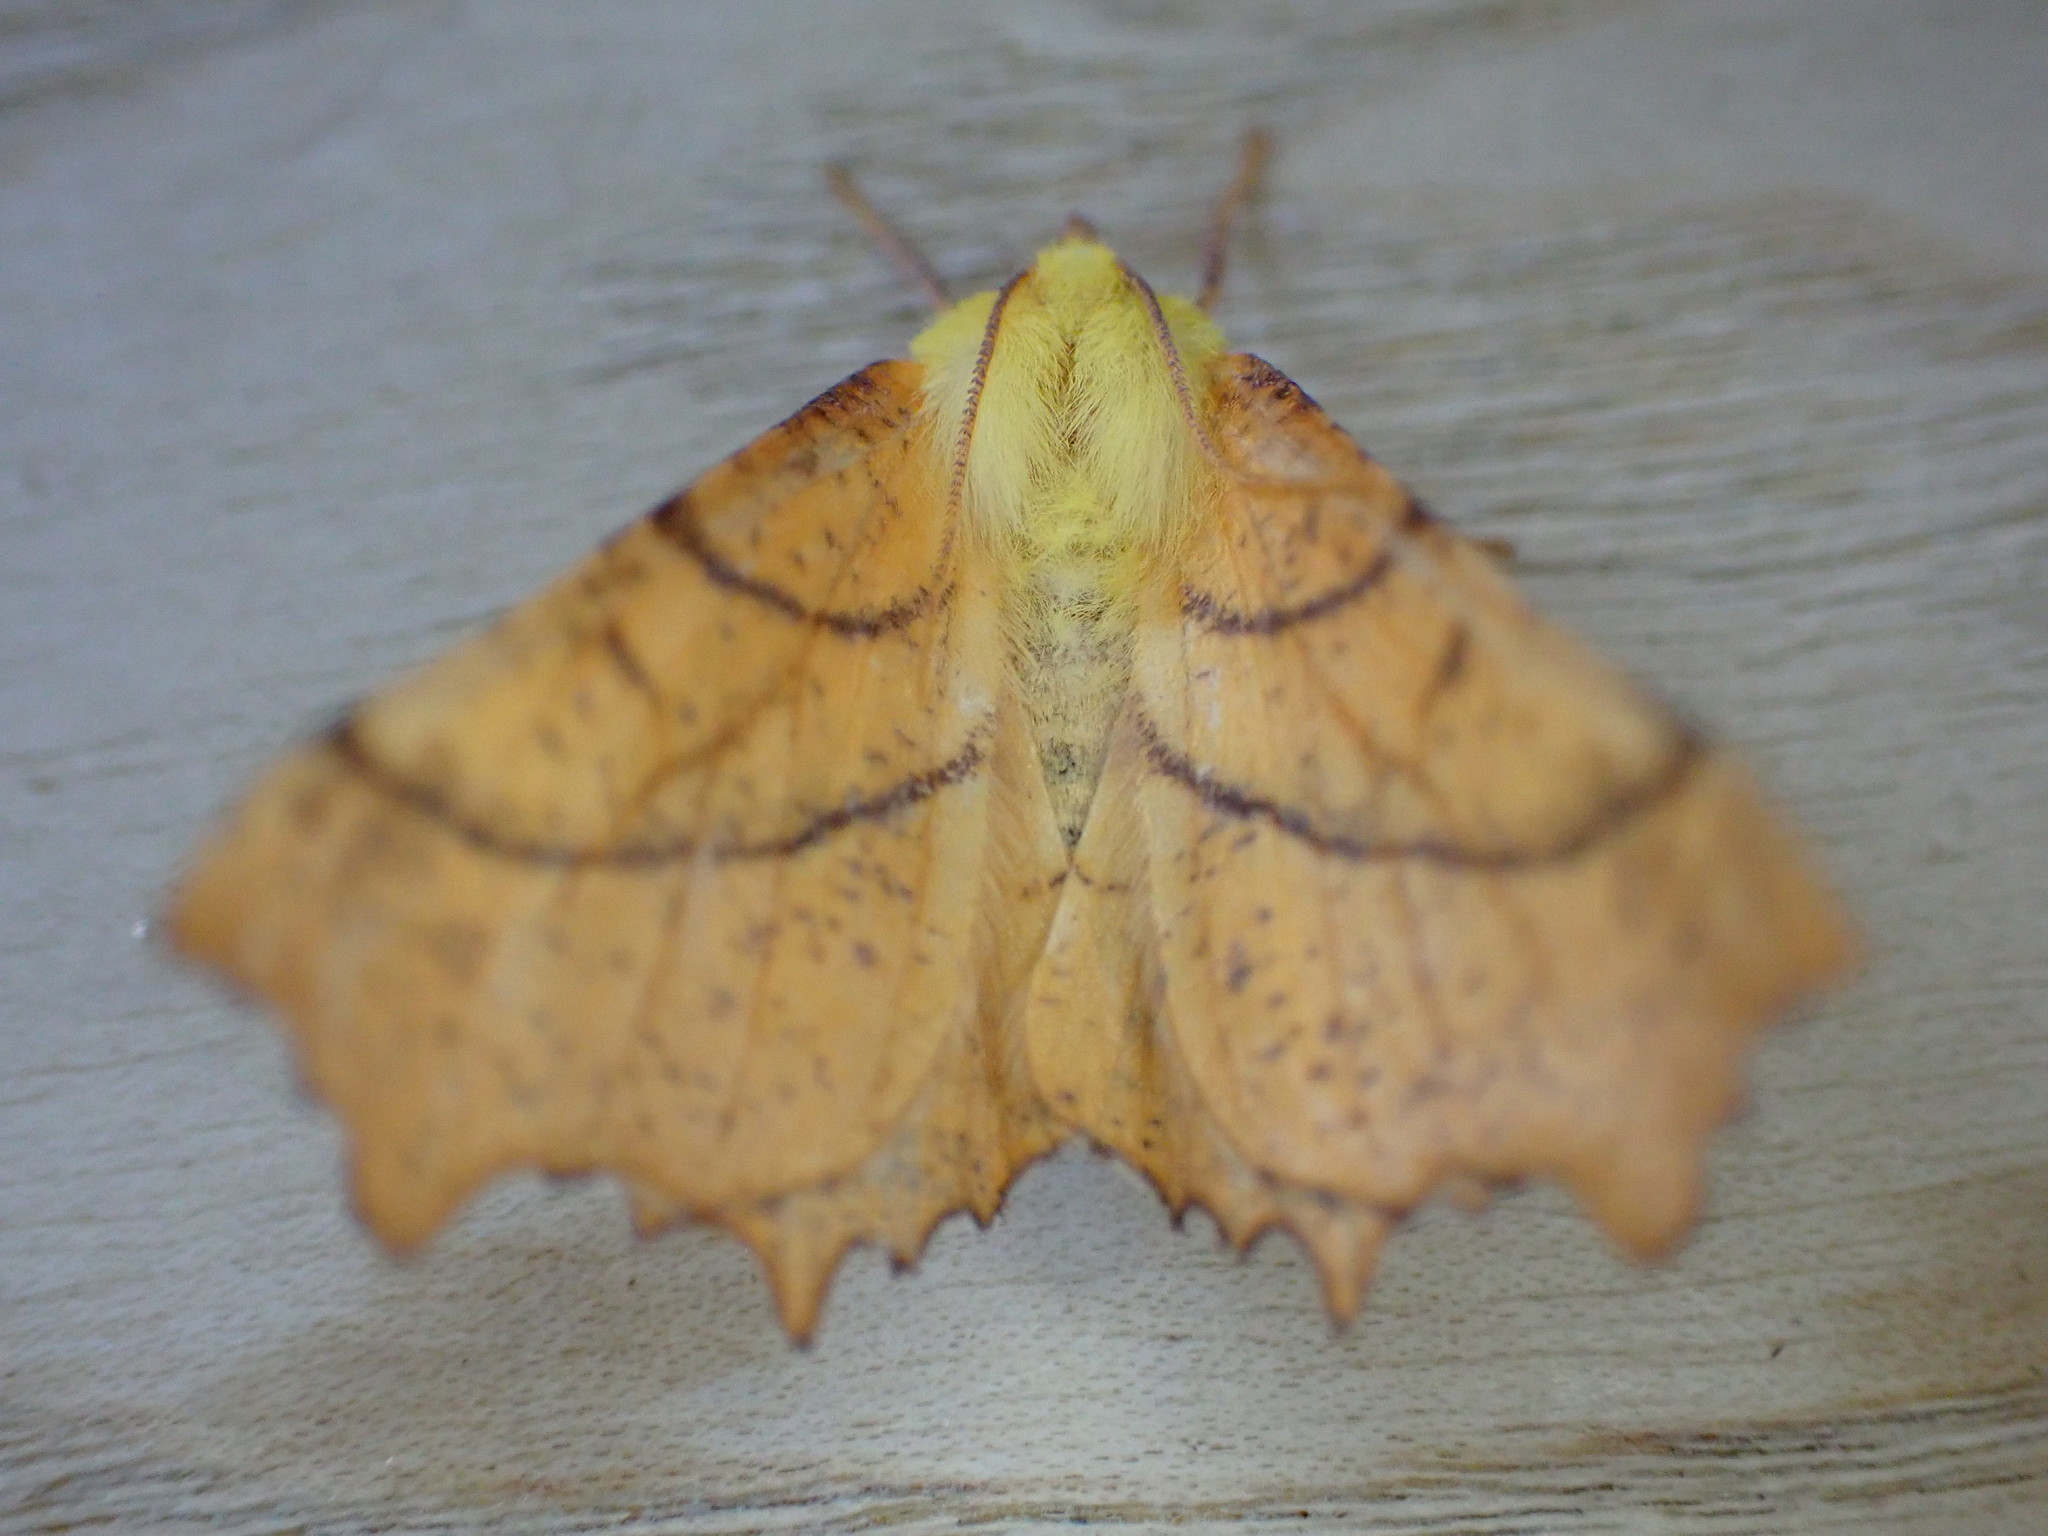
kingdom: Animalia
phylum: Arthropoda
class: Insecta
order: Lepidoptera
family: Geometridae
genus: Ennomos
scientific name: Ennomos alniaria
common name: Canary-shouldered thorn
